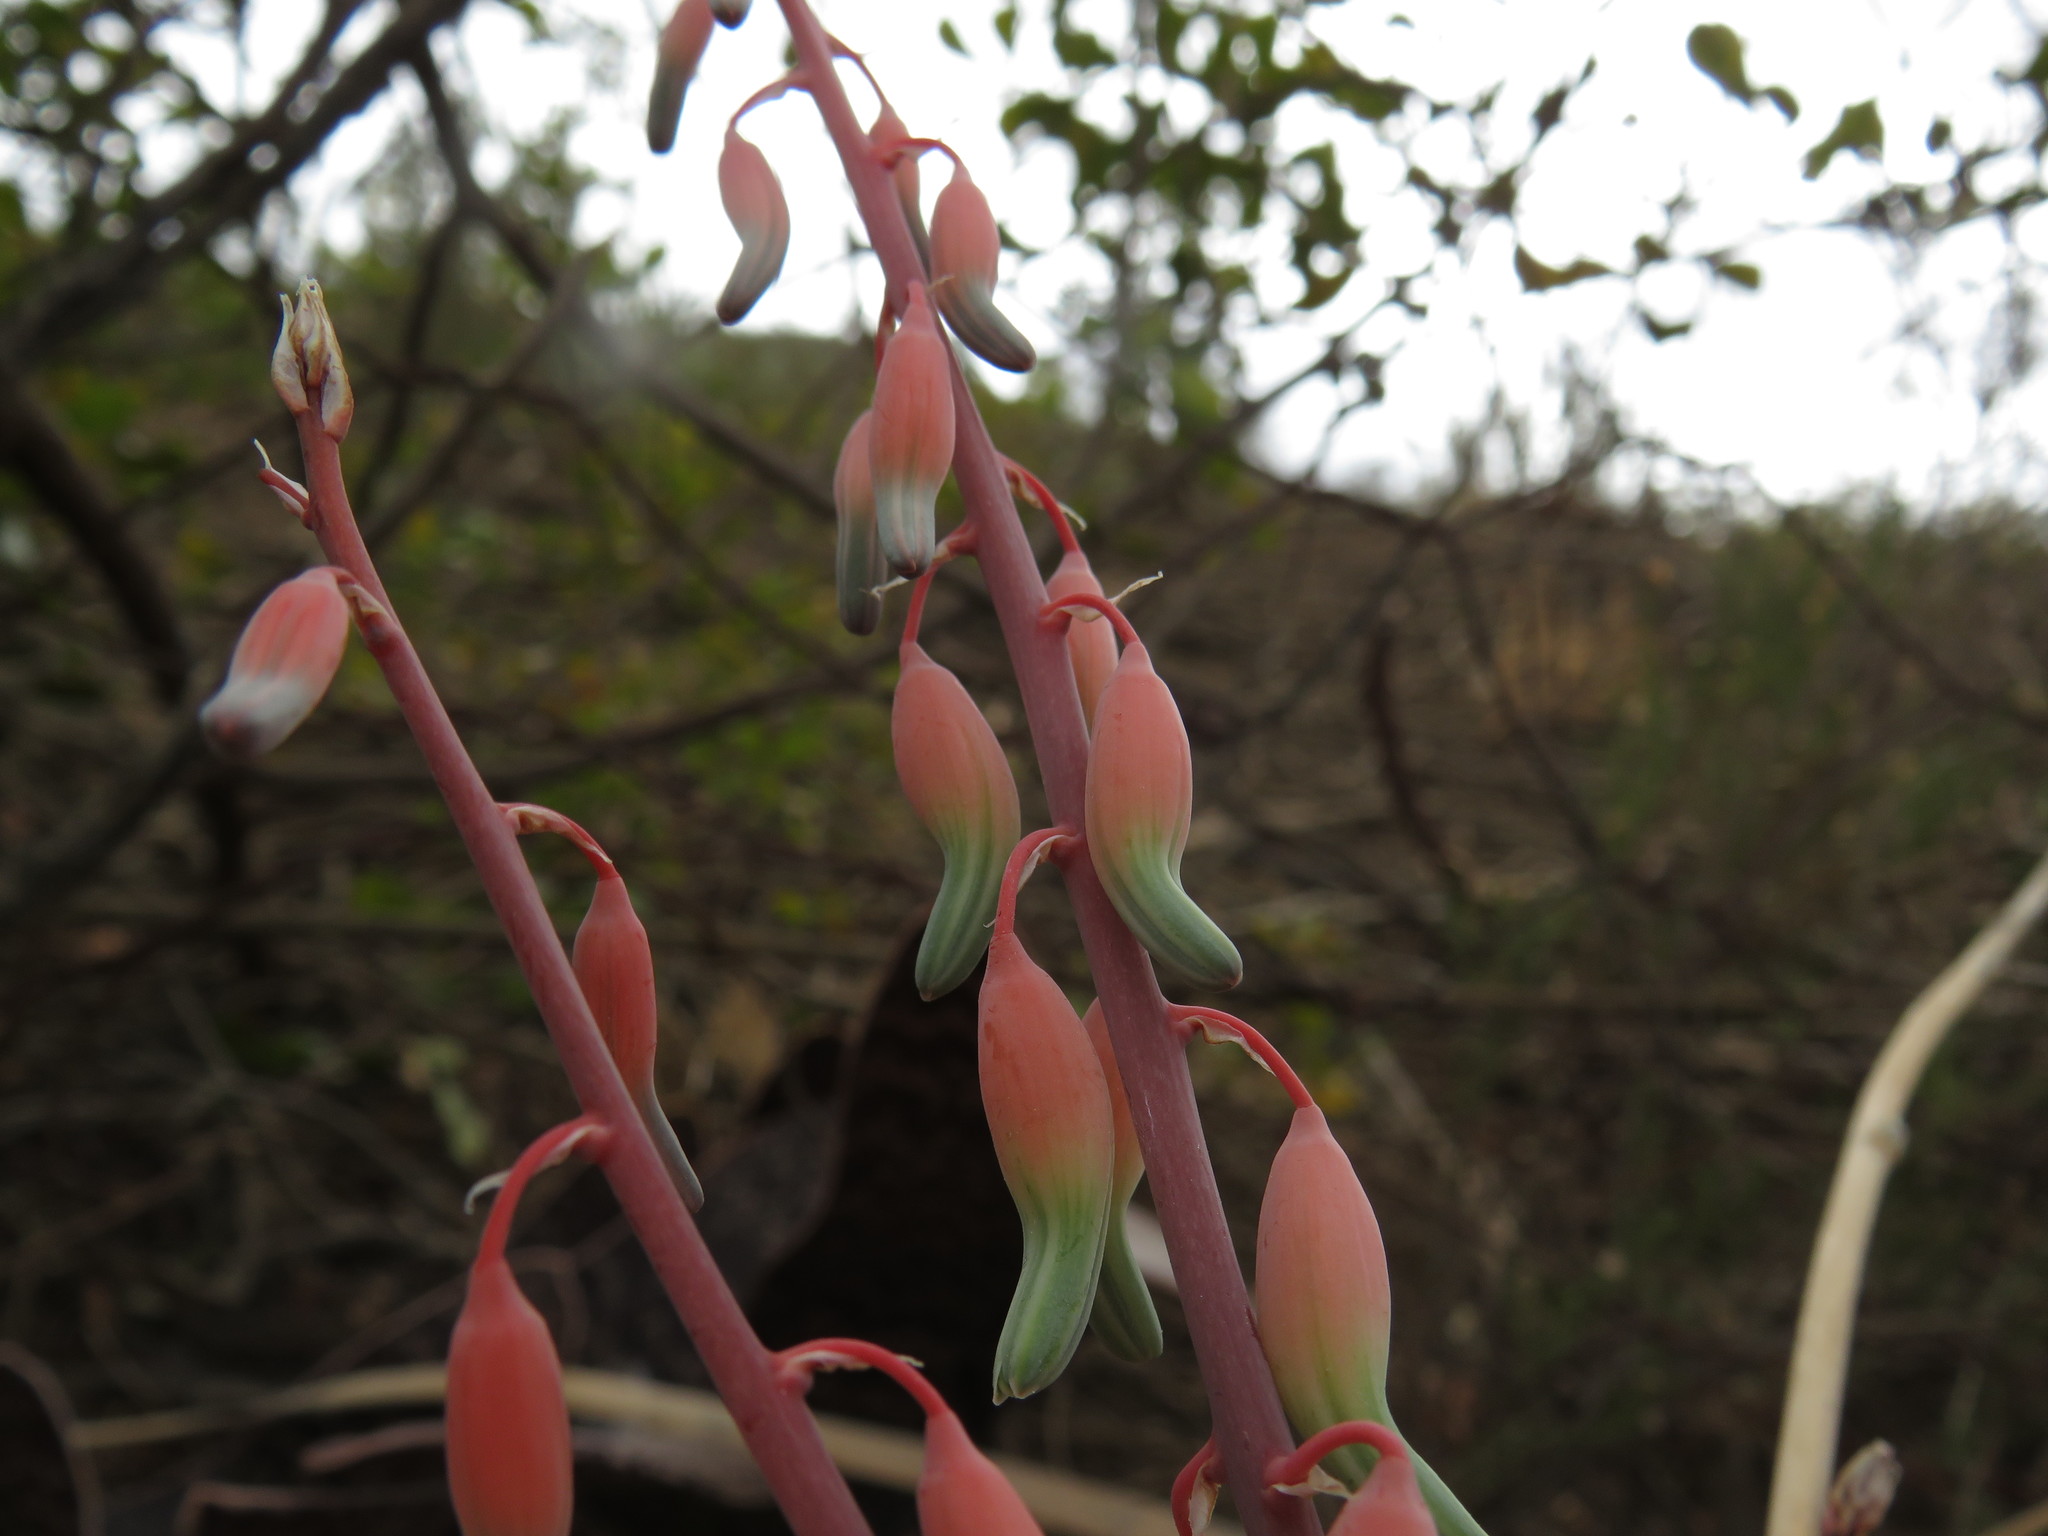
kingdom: Plantae
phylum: Tracheophyta
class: Liliopsida
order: Asparagales
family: Asphodelaceae
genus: Gasteria
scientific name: Gasteria brachyphylla
